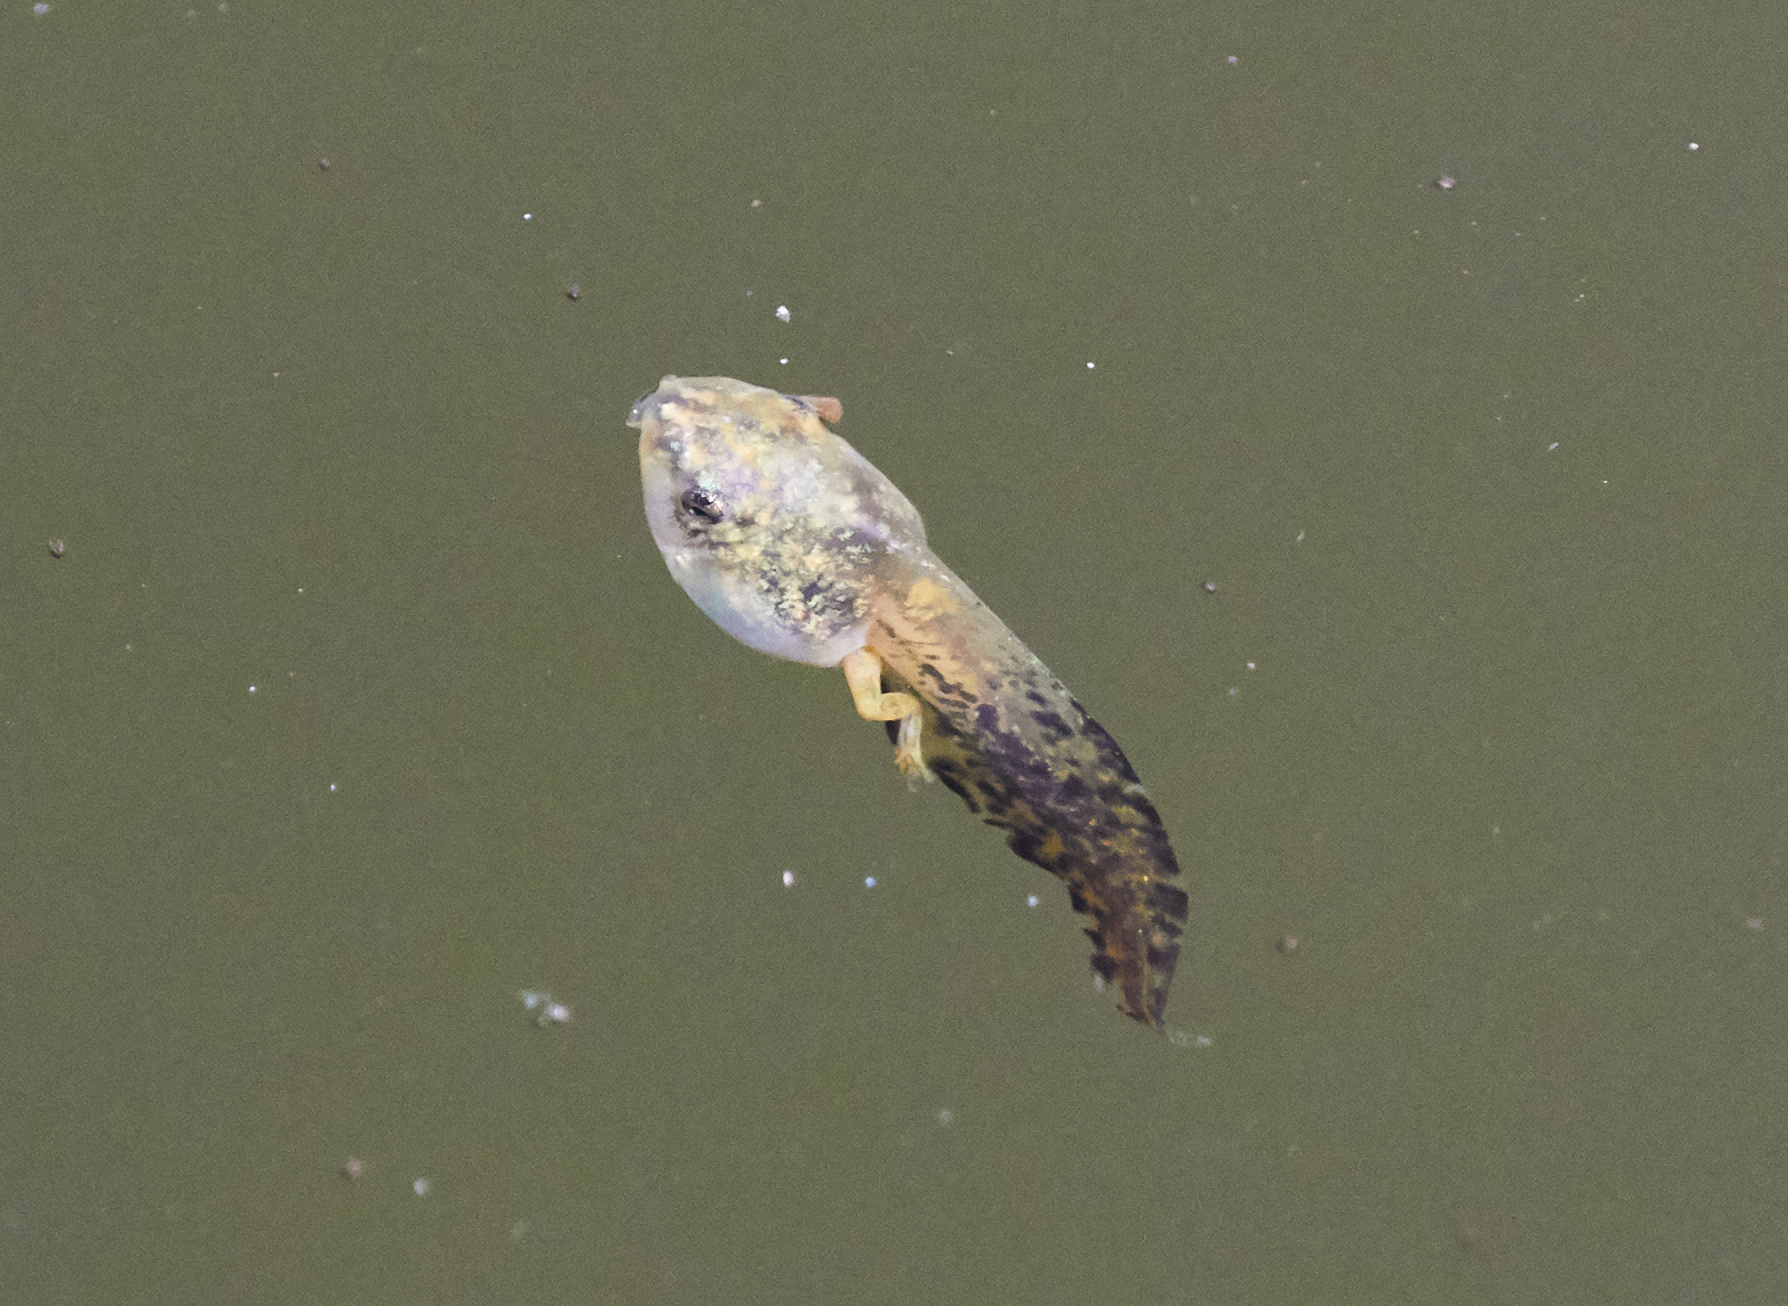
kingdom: Animalia
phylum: Chordata
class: Amphibia
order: Anura
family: Hylidae
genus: Dryophytes
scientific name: Dryophytes versicolor
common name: Gray treefrog
